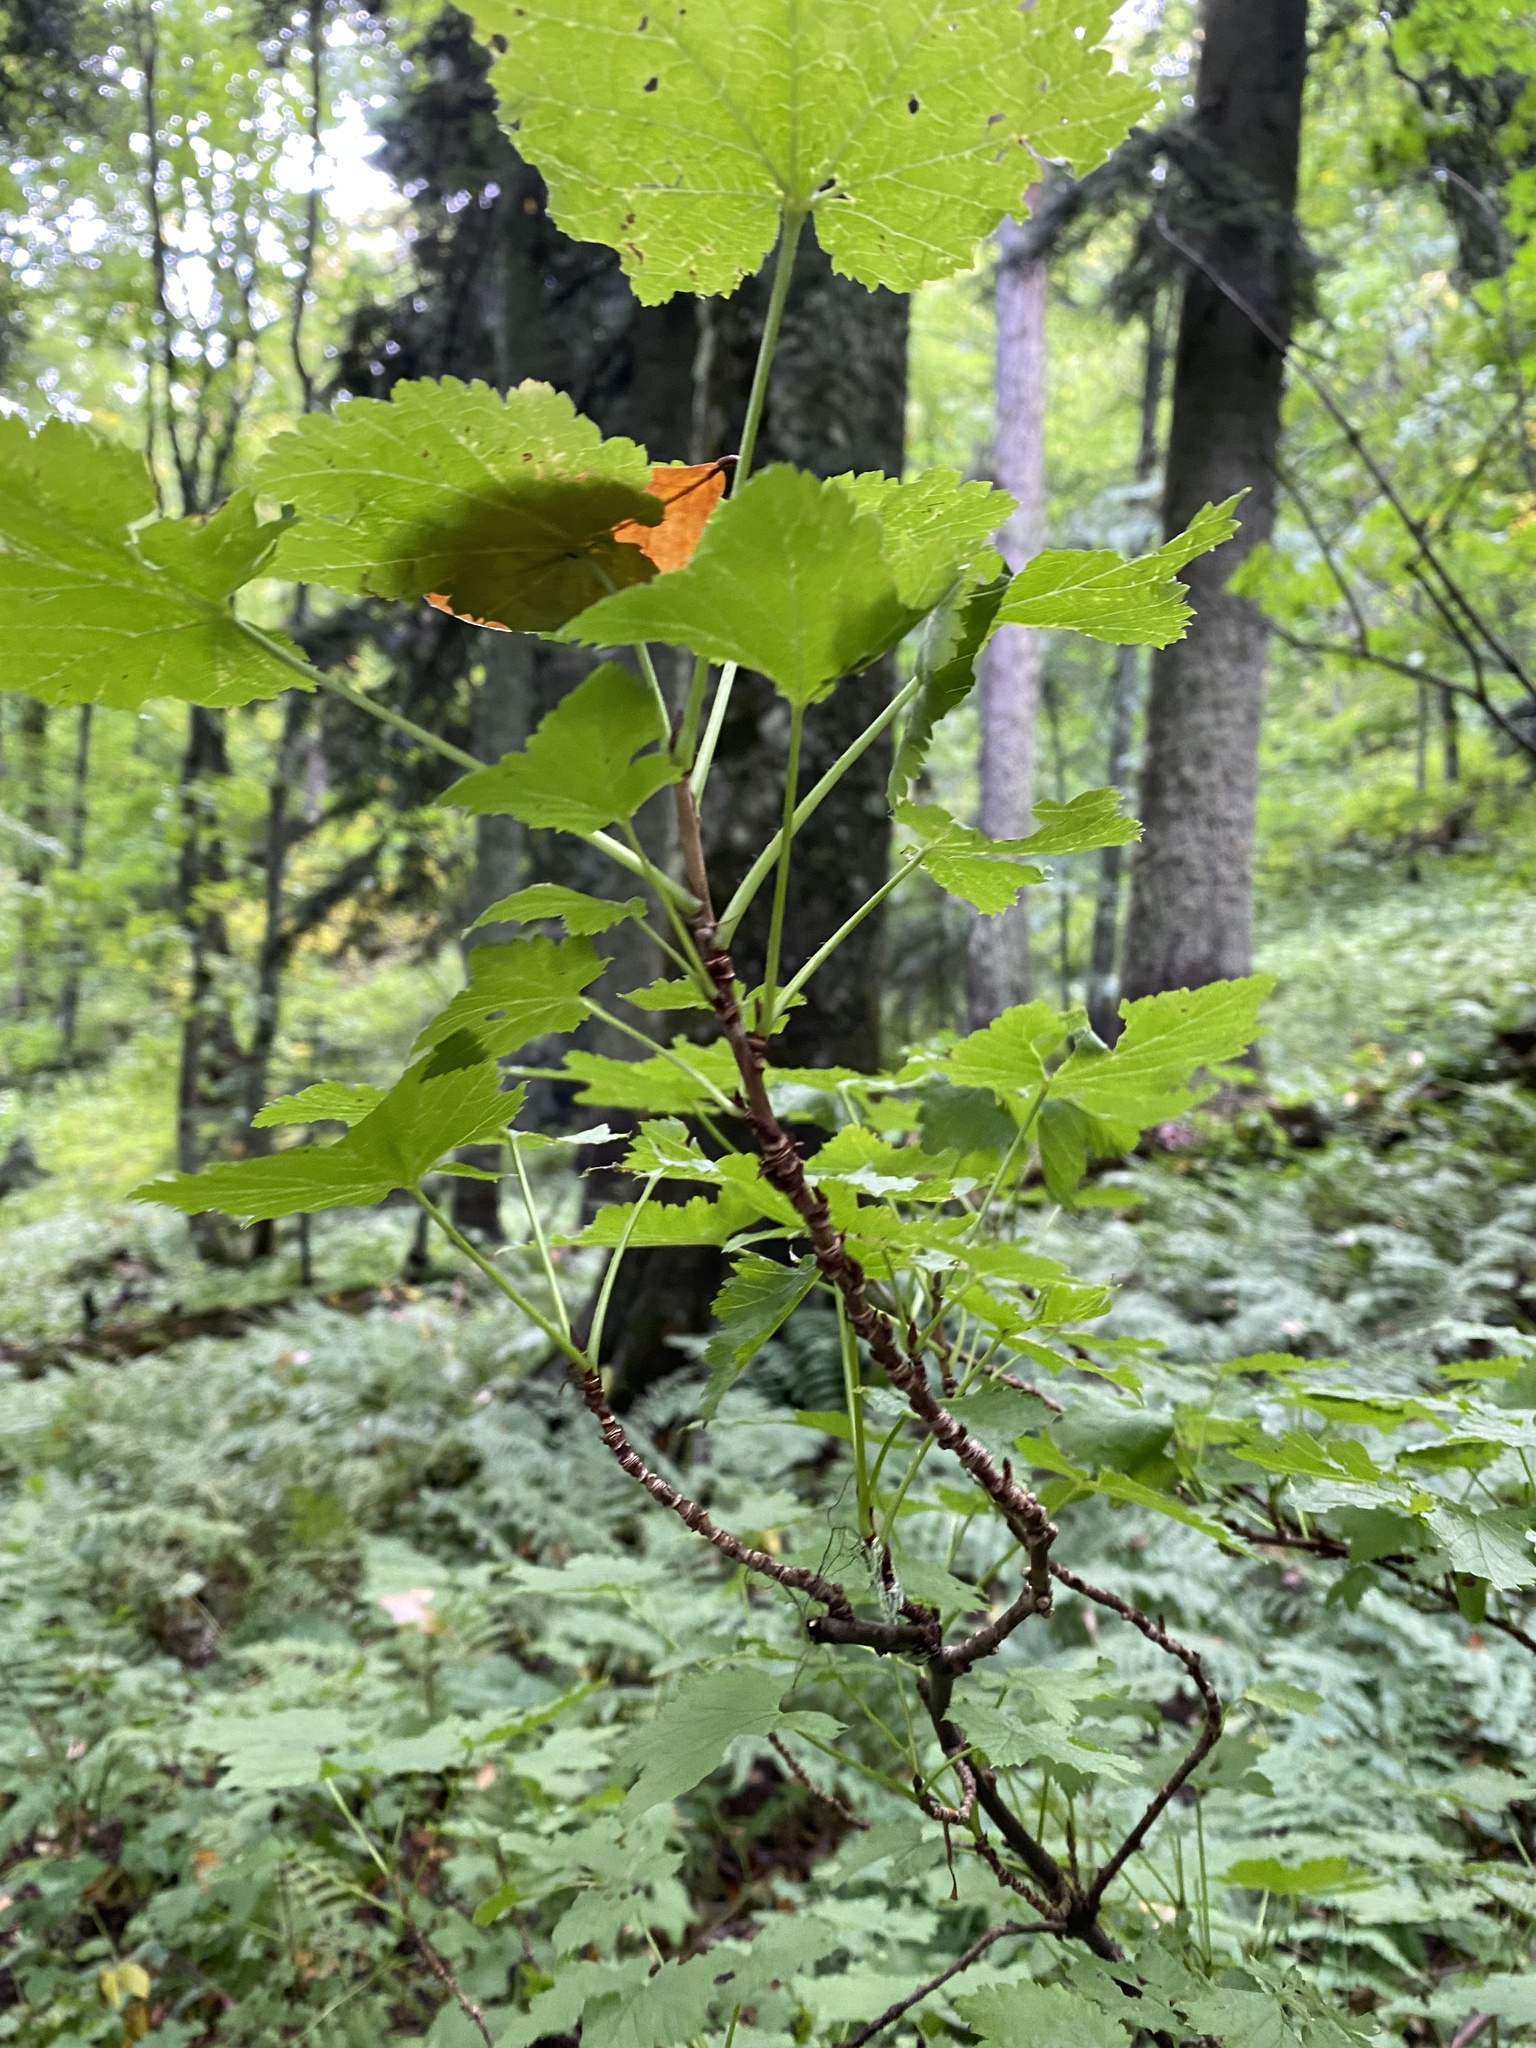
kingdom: Plantae
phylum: Tracheophyta
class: Magnoliopsida
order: Saxifragales
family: Grossulariaceae
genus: Ribes
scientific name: Ribes biebersteinii
